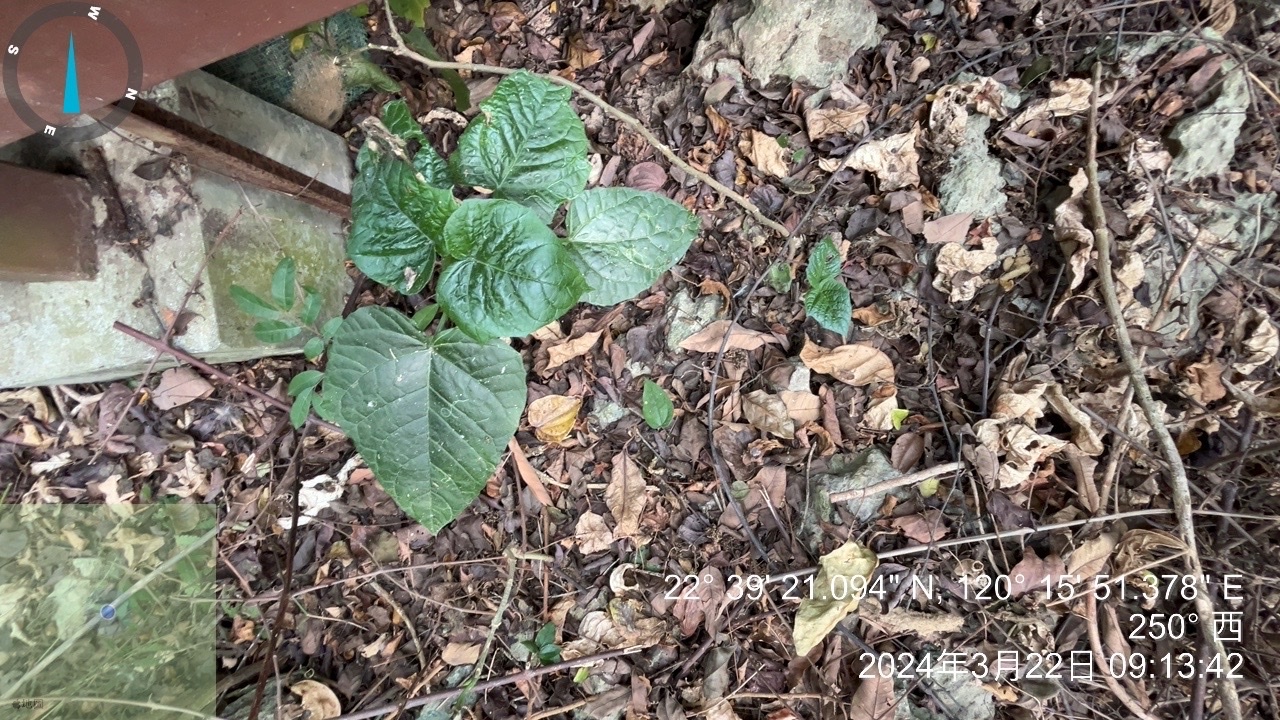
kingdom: Plantae
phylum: Tracheophyta
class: Magnoliopsida
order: Lamiales
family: Lamiaceae
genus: Clerodendrum
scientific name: Clerodendrum japonicum
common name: Japanese glorybower
